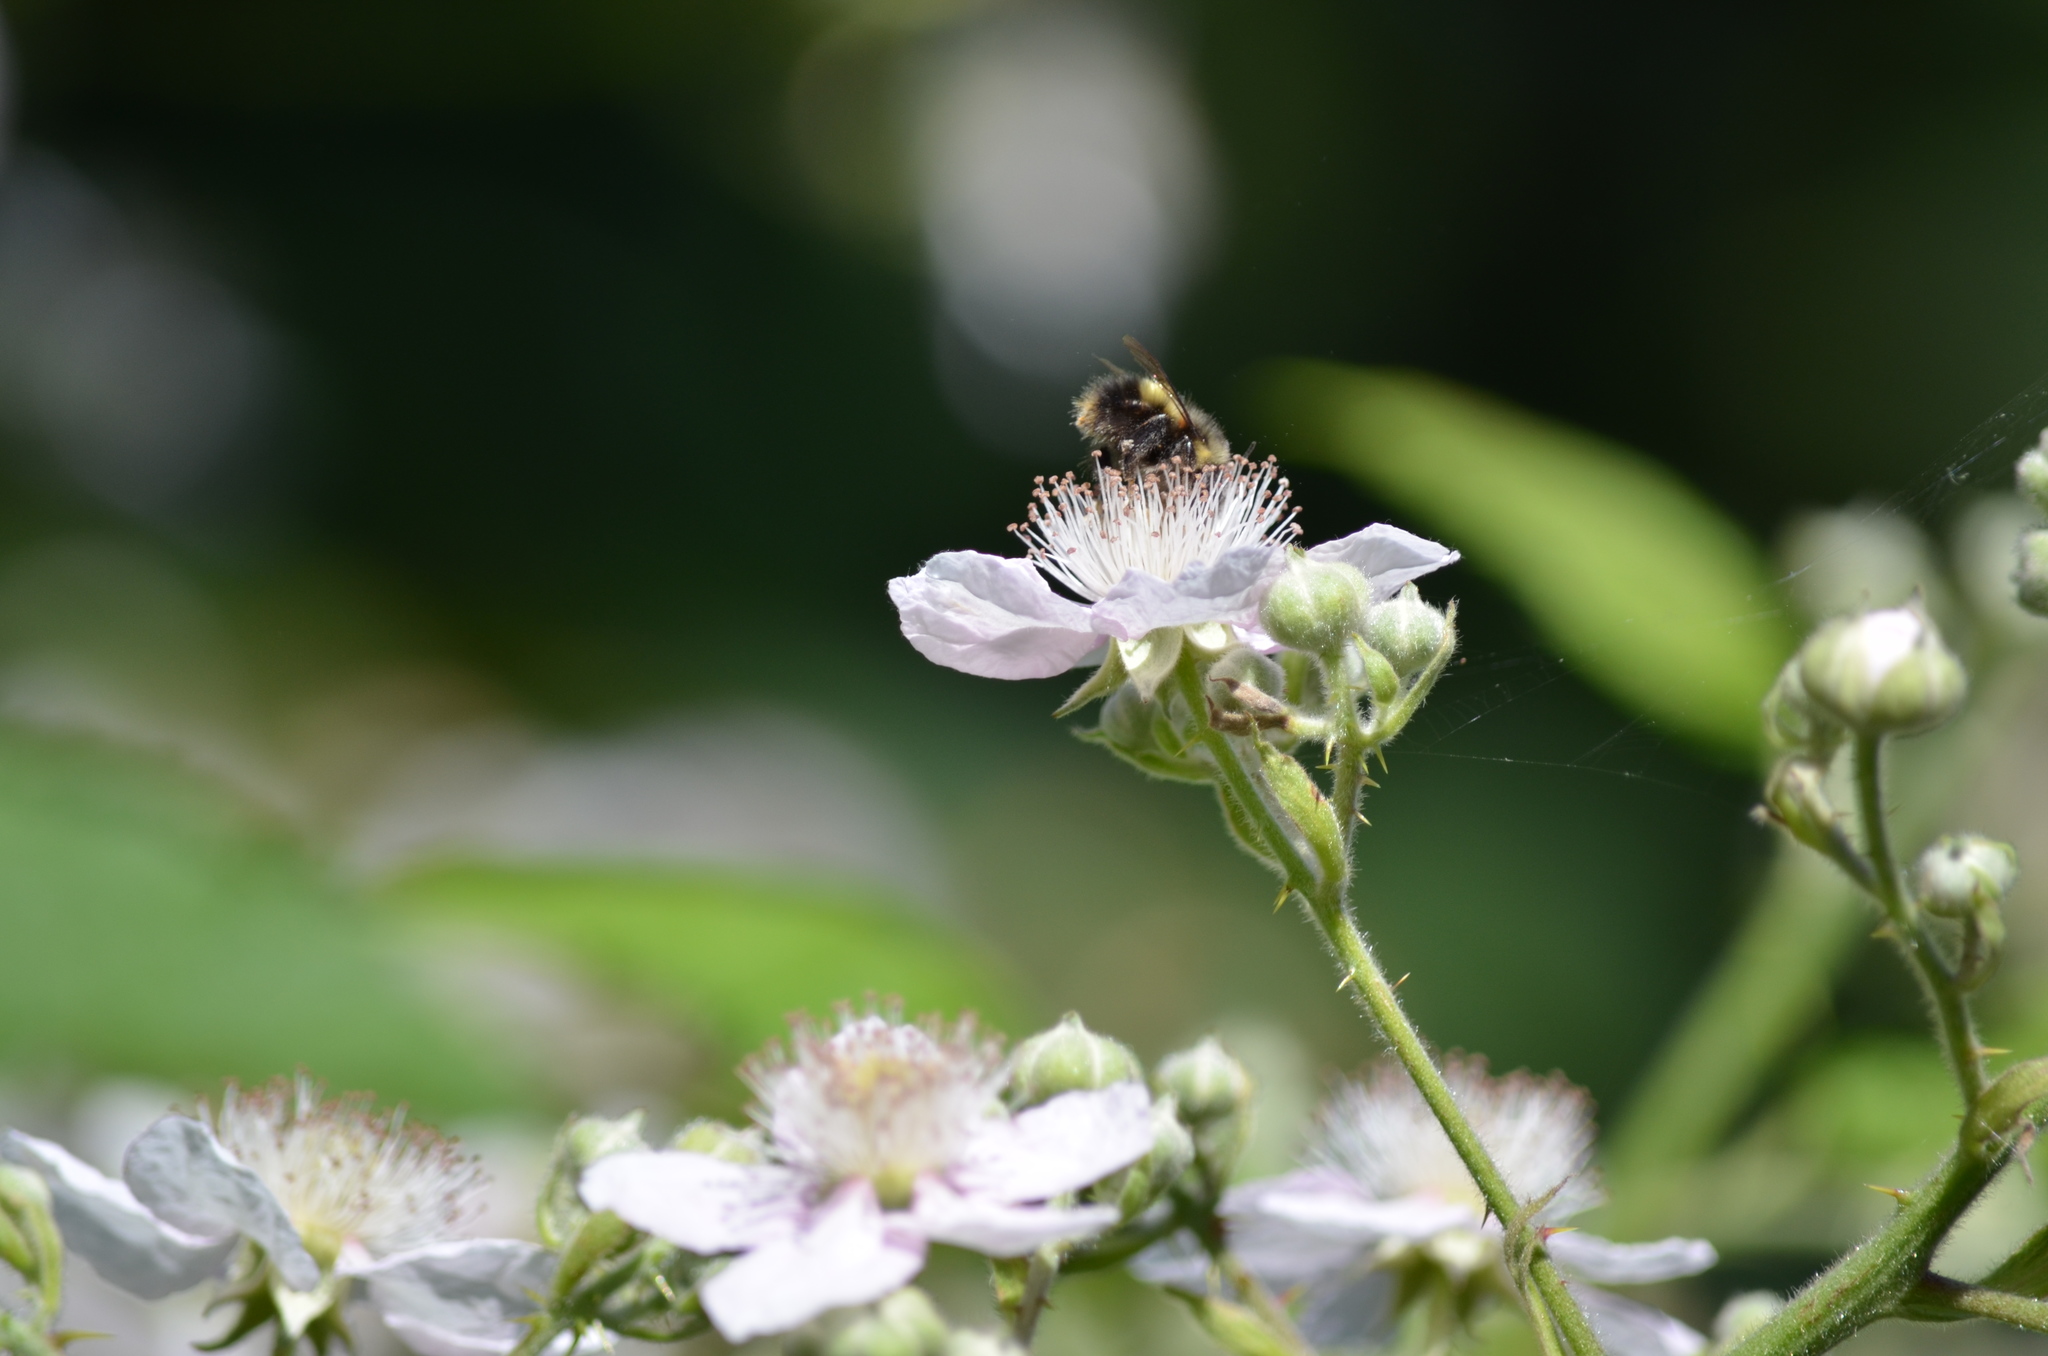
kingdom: Animalia
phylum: Arthropoda
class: Insecta
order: Hymenoptera
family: Apidae
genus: Bombus
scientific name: Bombus sitkensis
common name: Sitka bumble bee
